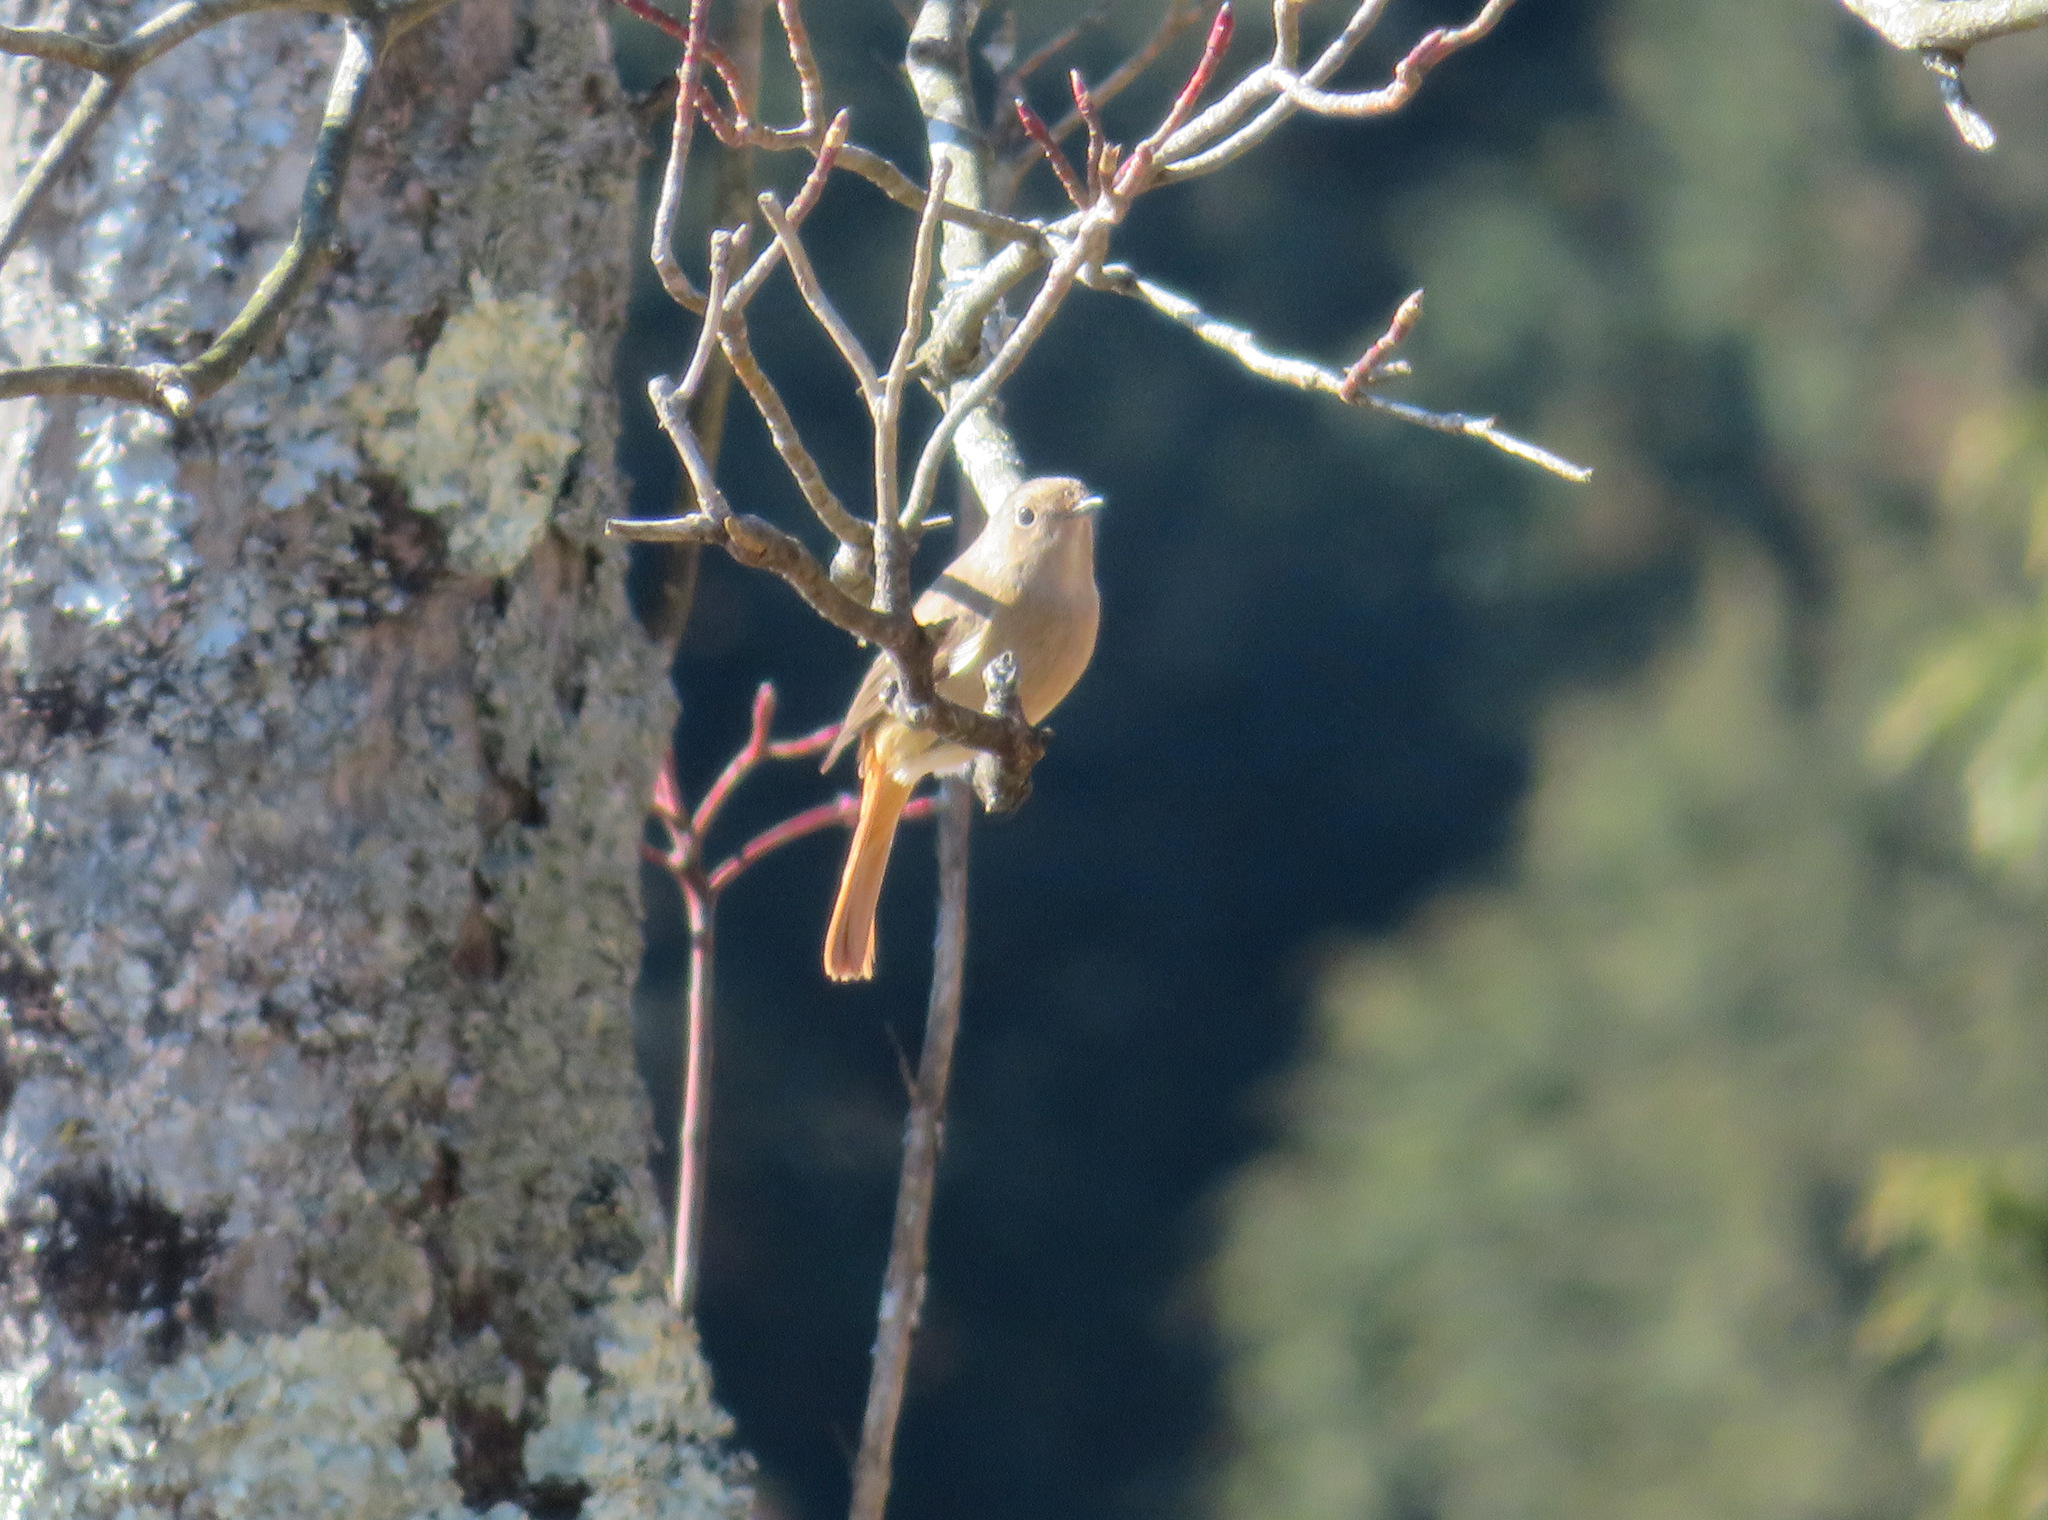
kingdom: Animalia
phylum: Chordata
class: Aves
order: Passeriformes
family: Muscicapidae
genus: Phoenicurus
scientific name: Phoenicurus auroreus
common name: Daurian redstart
